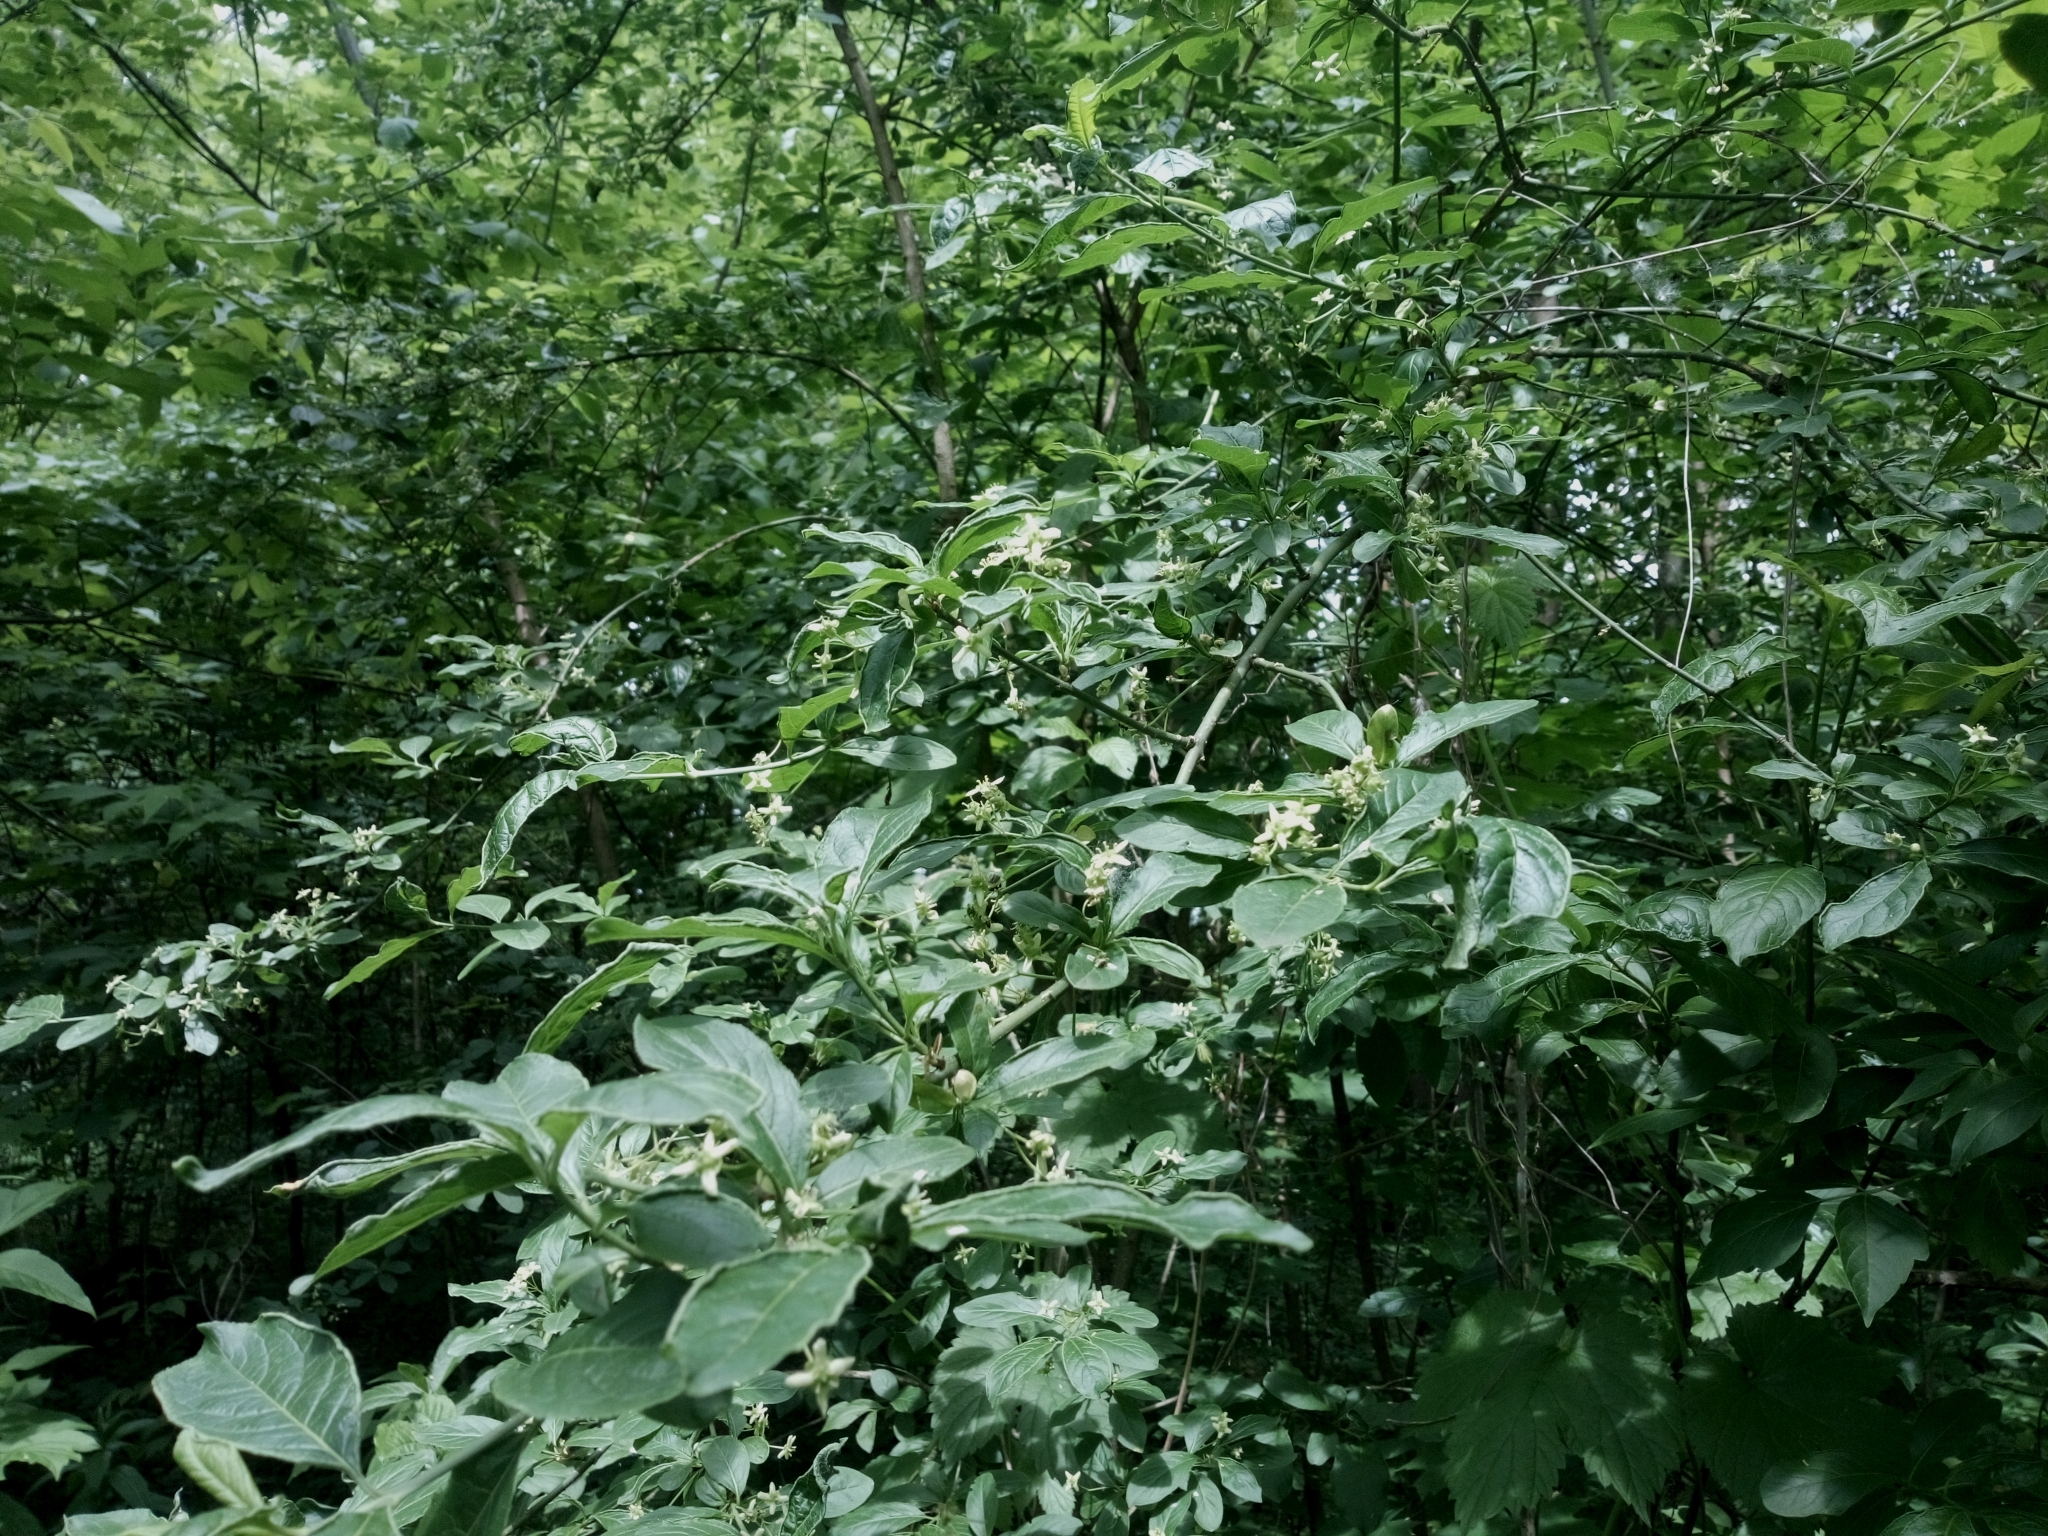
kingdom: Plantae
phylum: Tracheophyta
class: Magnoliopsida
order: Celastrales
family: Celastraceae
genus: Euonymus
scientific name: Euonymus europaeus
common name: Spindle
